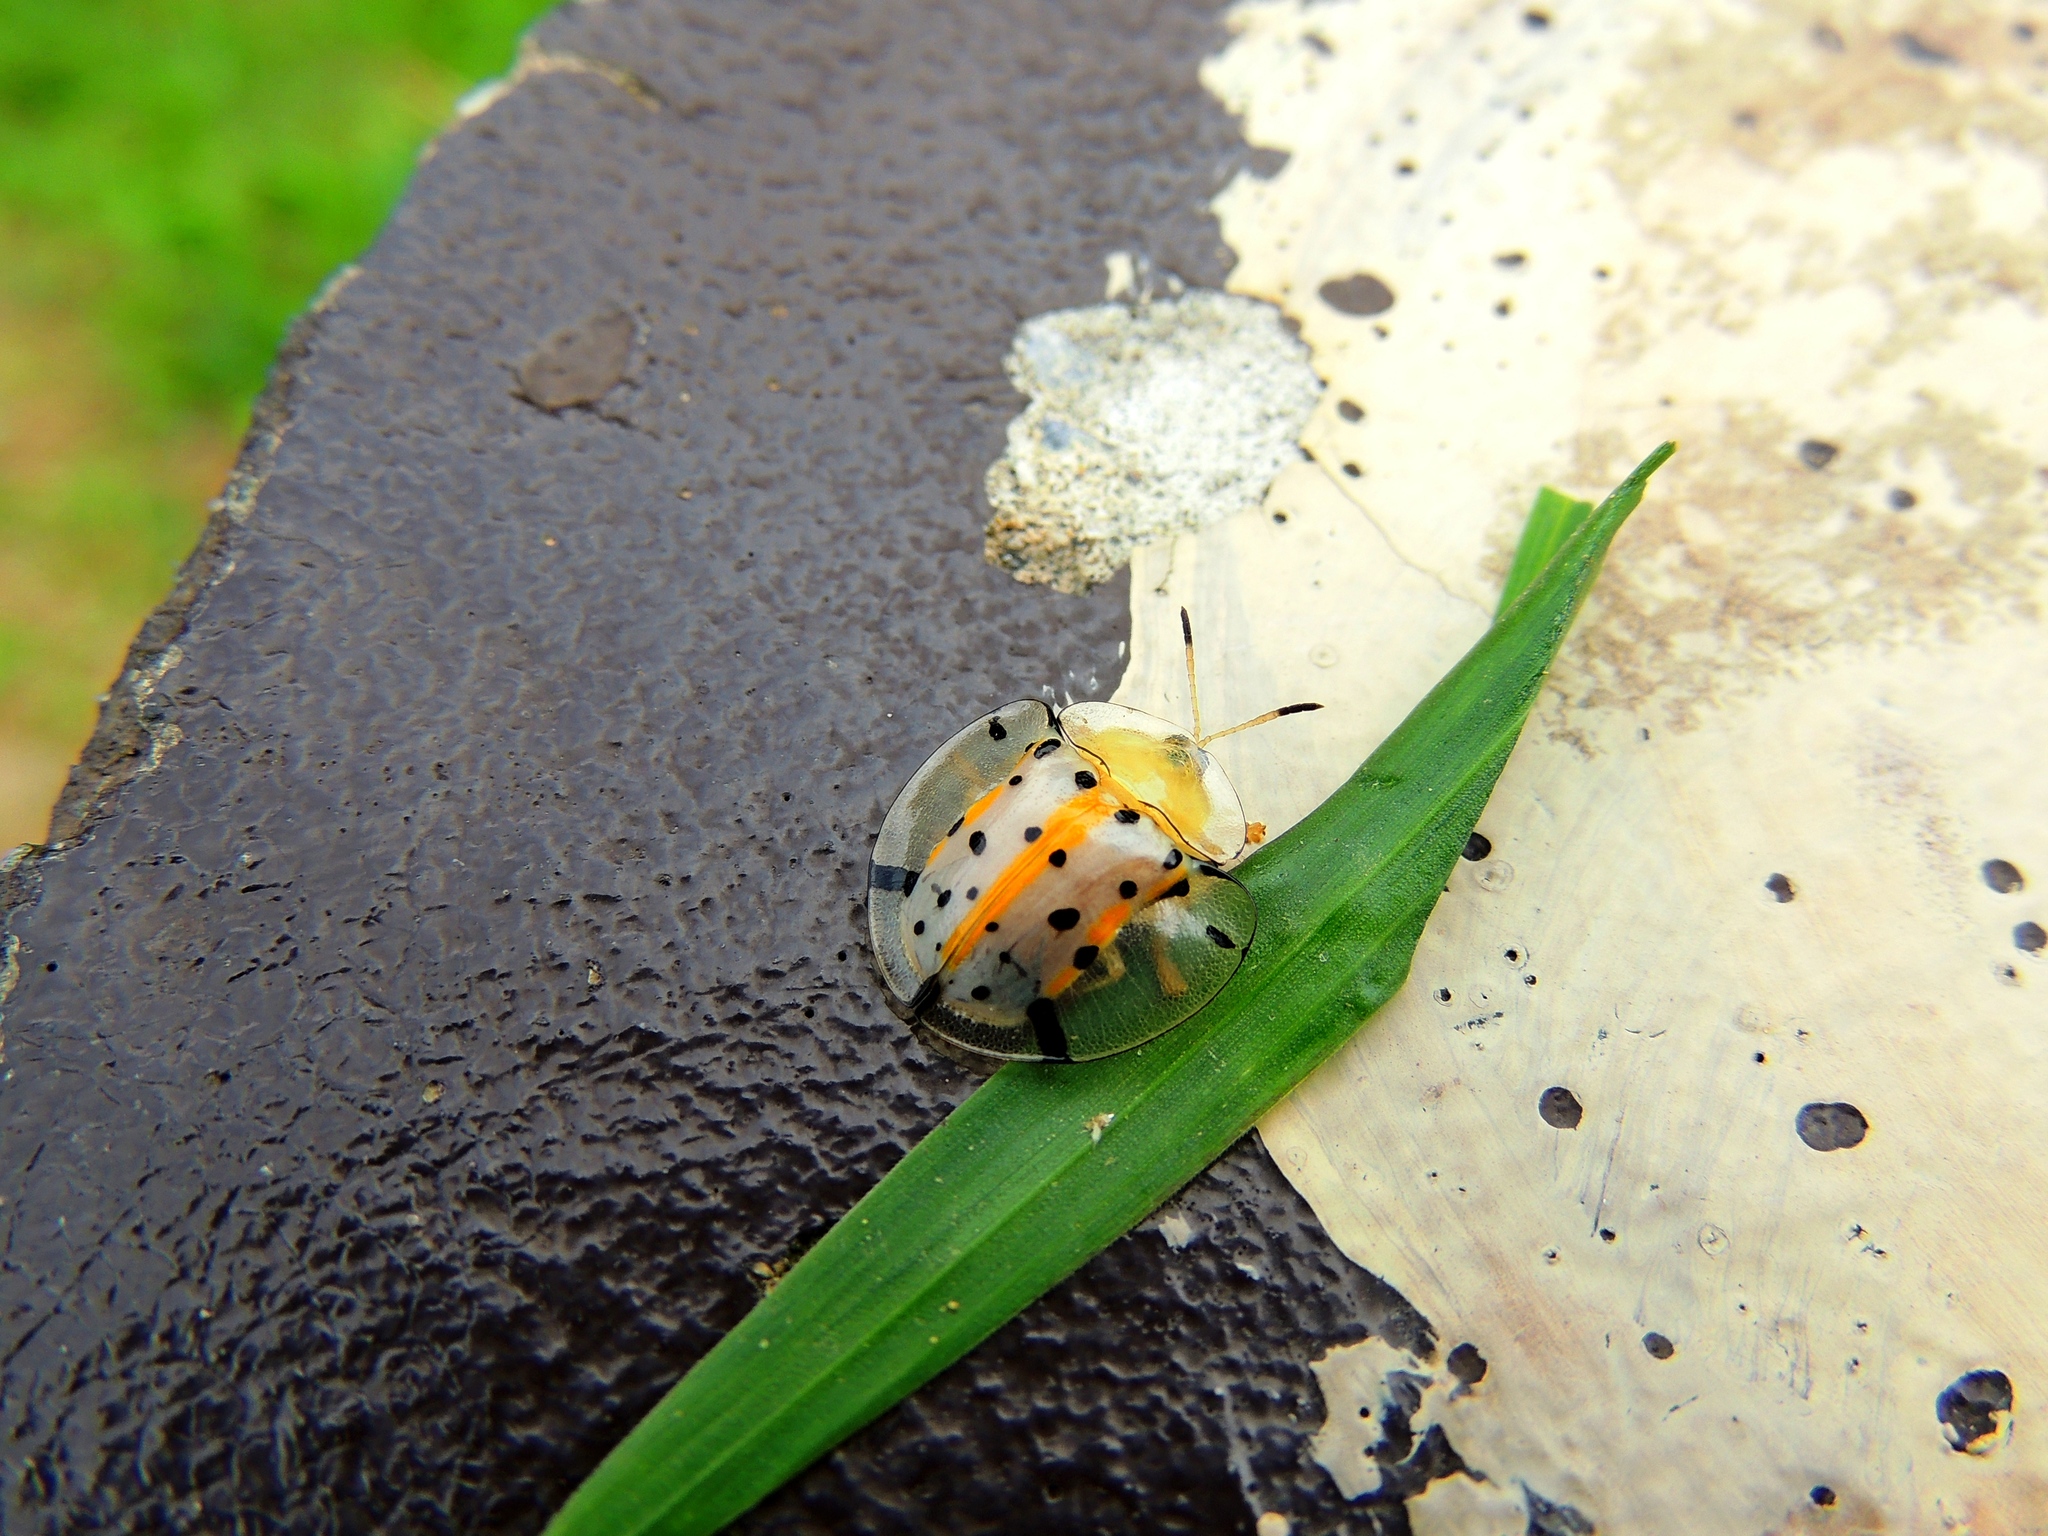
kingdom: Animalia
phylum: Arthropoda
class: Insecta
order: Coleoptera
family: Chrysomelidae
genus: Aspidimorpha
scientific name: Aspidimorpha miliaris
